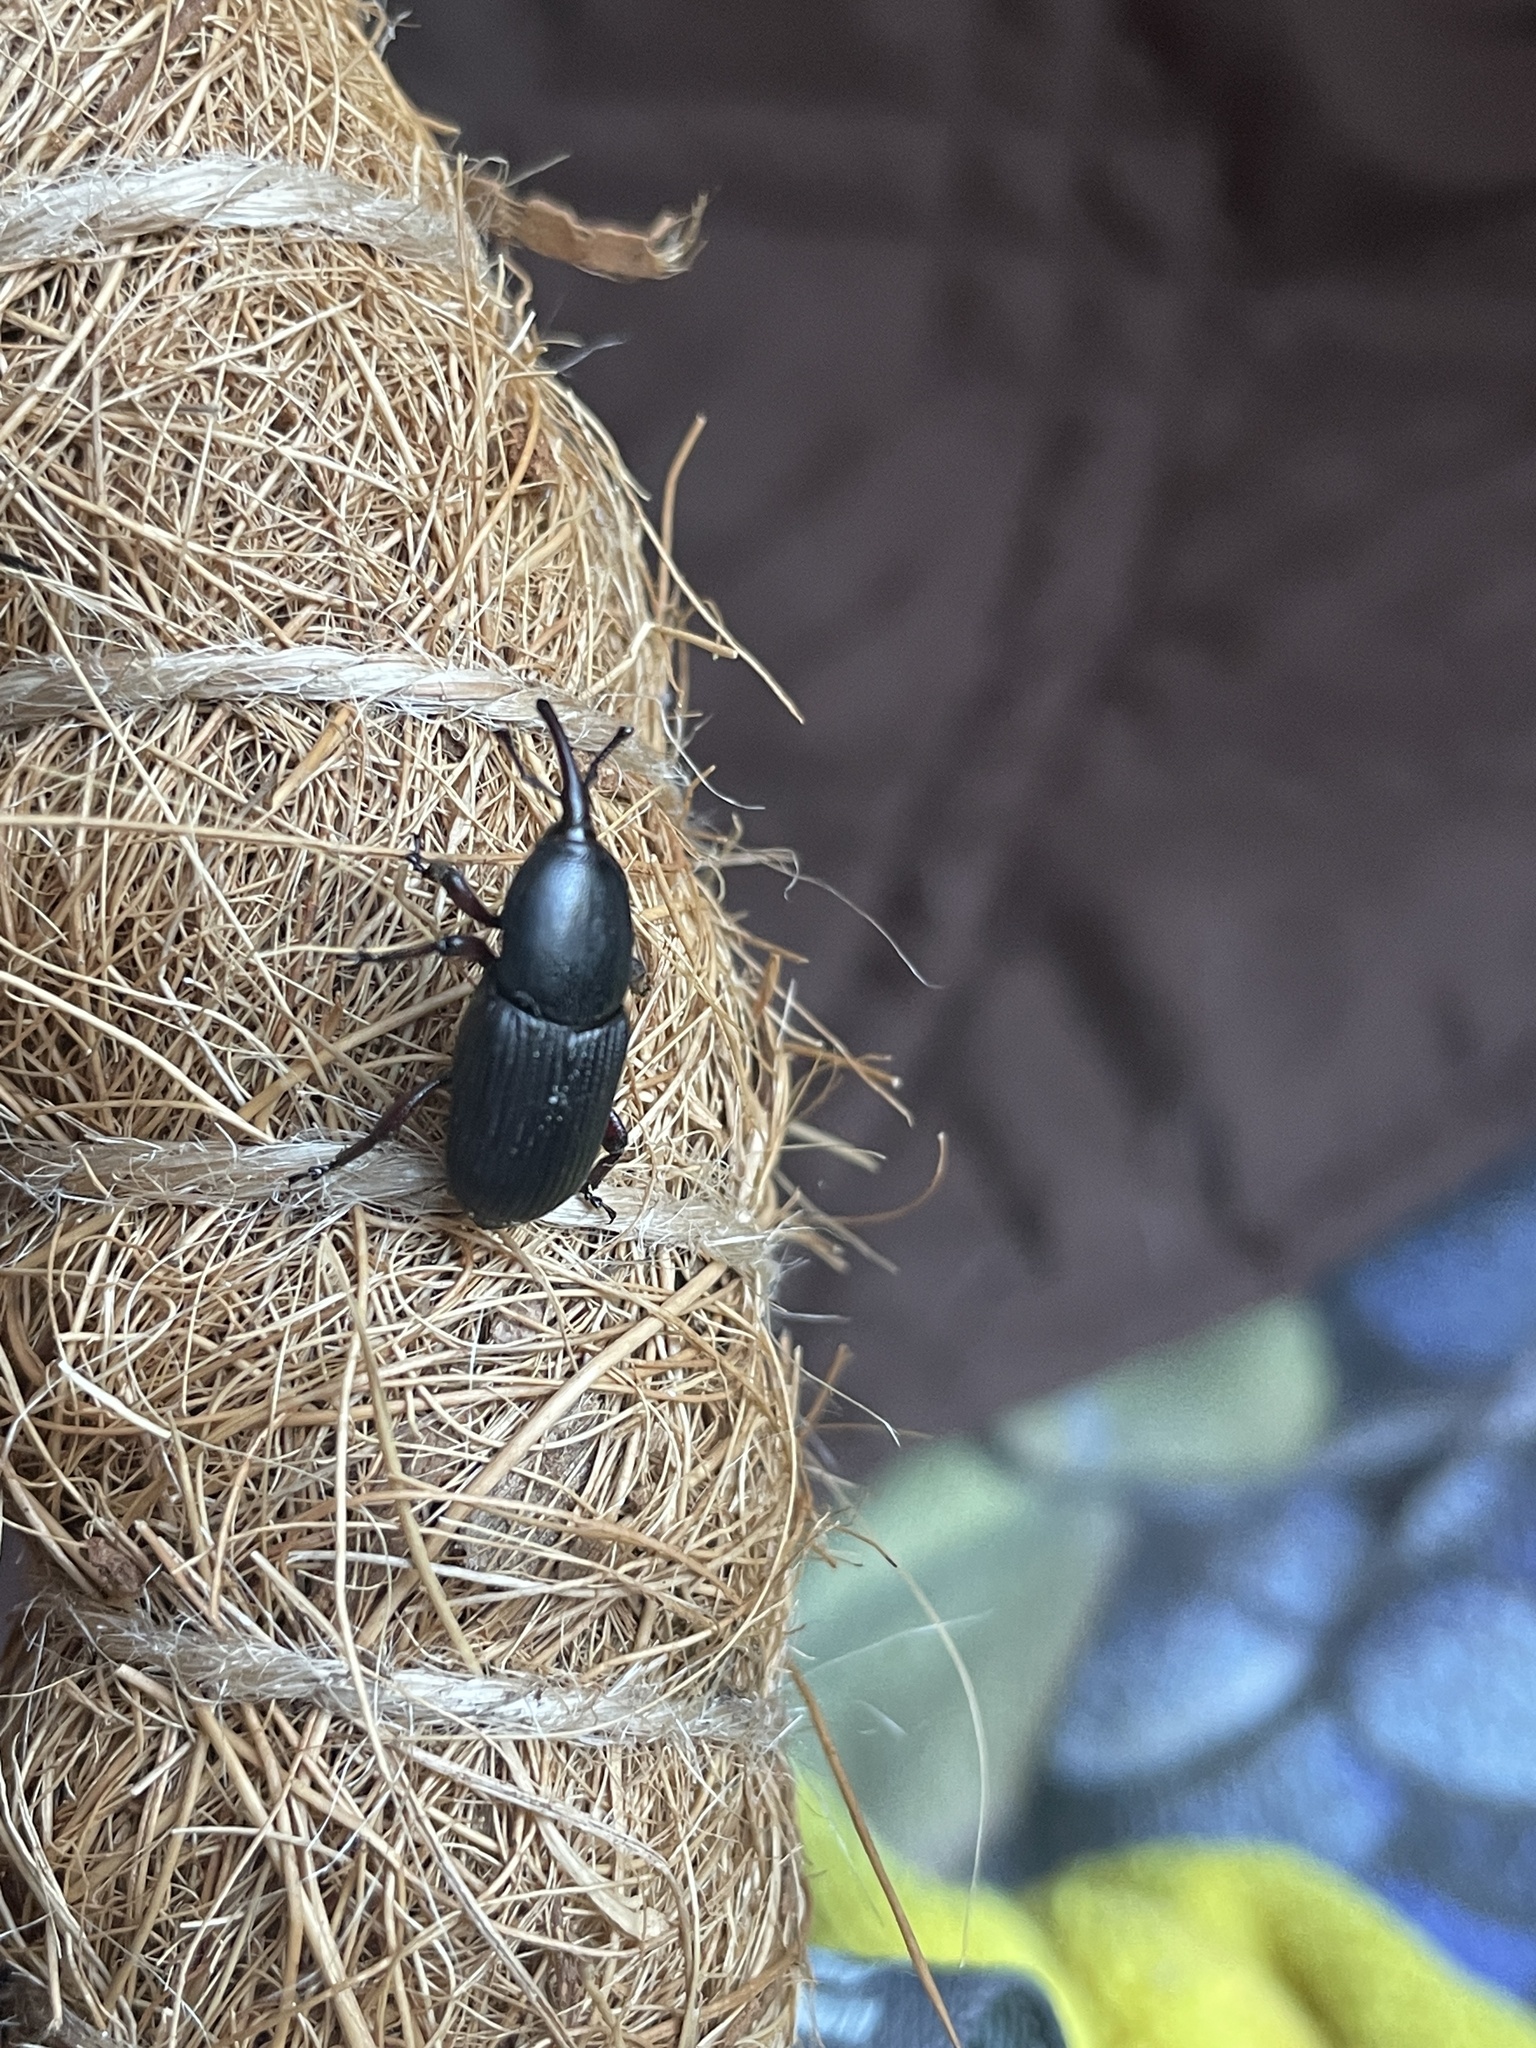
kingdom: Animalia
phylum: Arthropoda
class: Insecta
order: Coleoptera
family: Dryophthoridae
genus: Scyphophorus
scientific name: Scyphophorus acupunctatus
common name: Weevil
